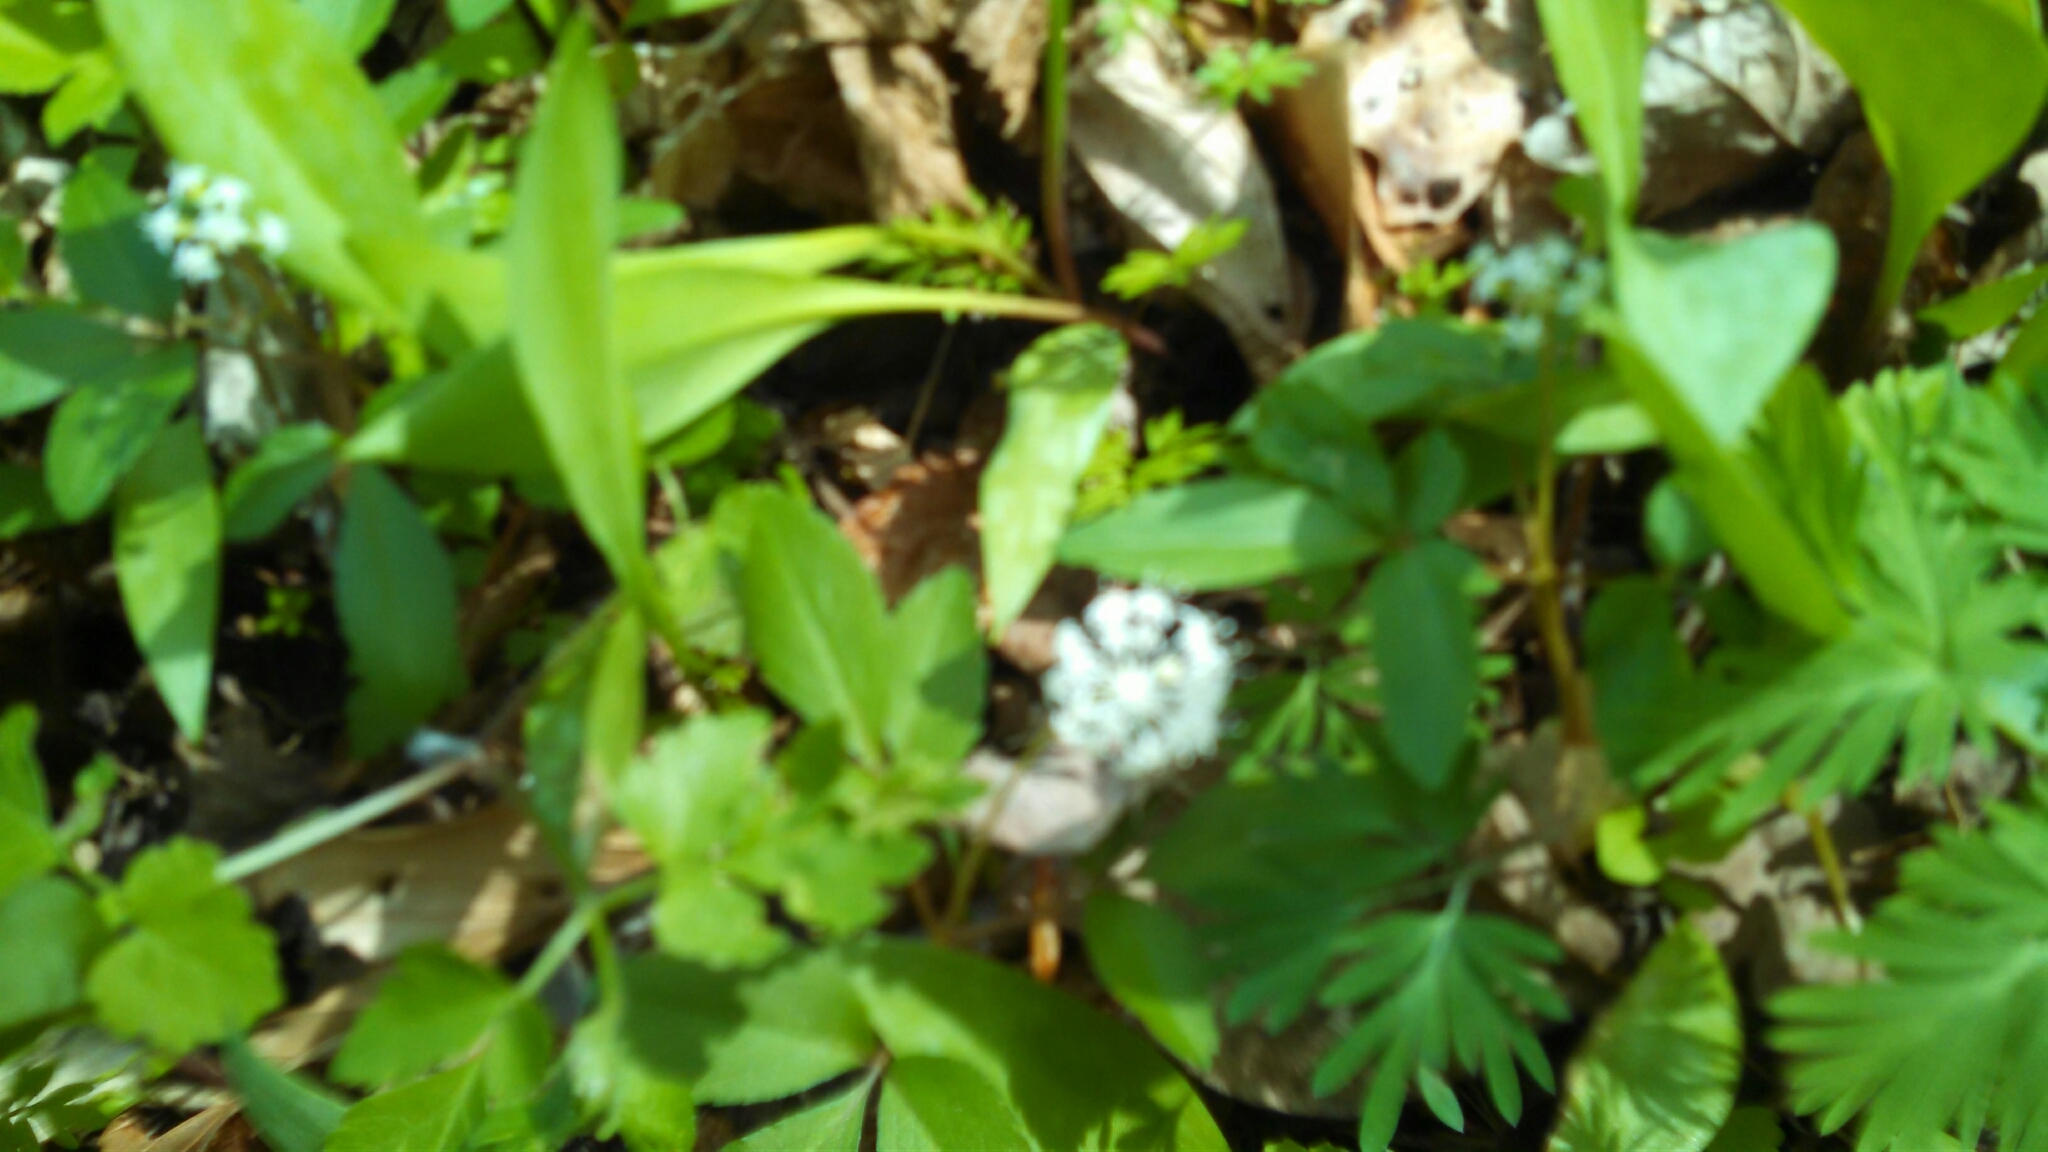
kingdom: Plantae
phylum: Tracheophyta
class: Magnoliopsida
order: Apiales
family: Araliaceae
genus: Panax
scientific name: Panax trifolius
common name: Dwarf ginseng
